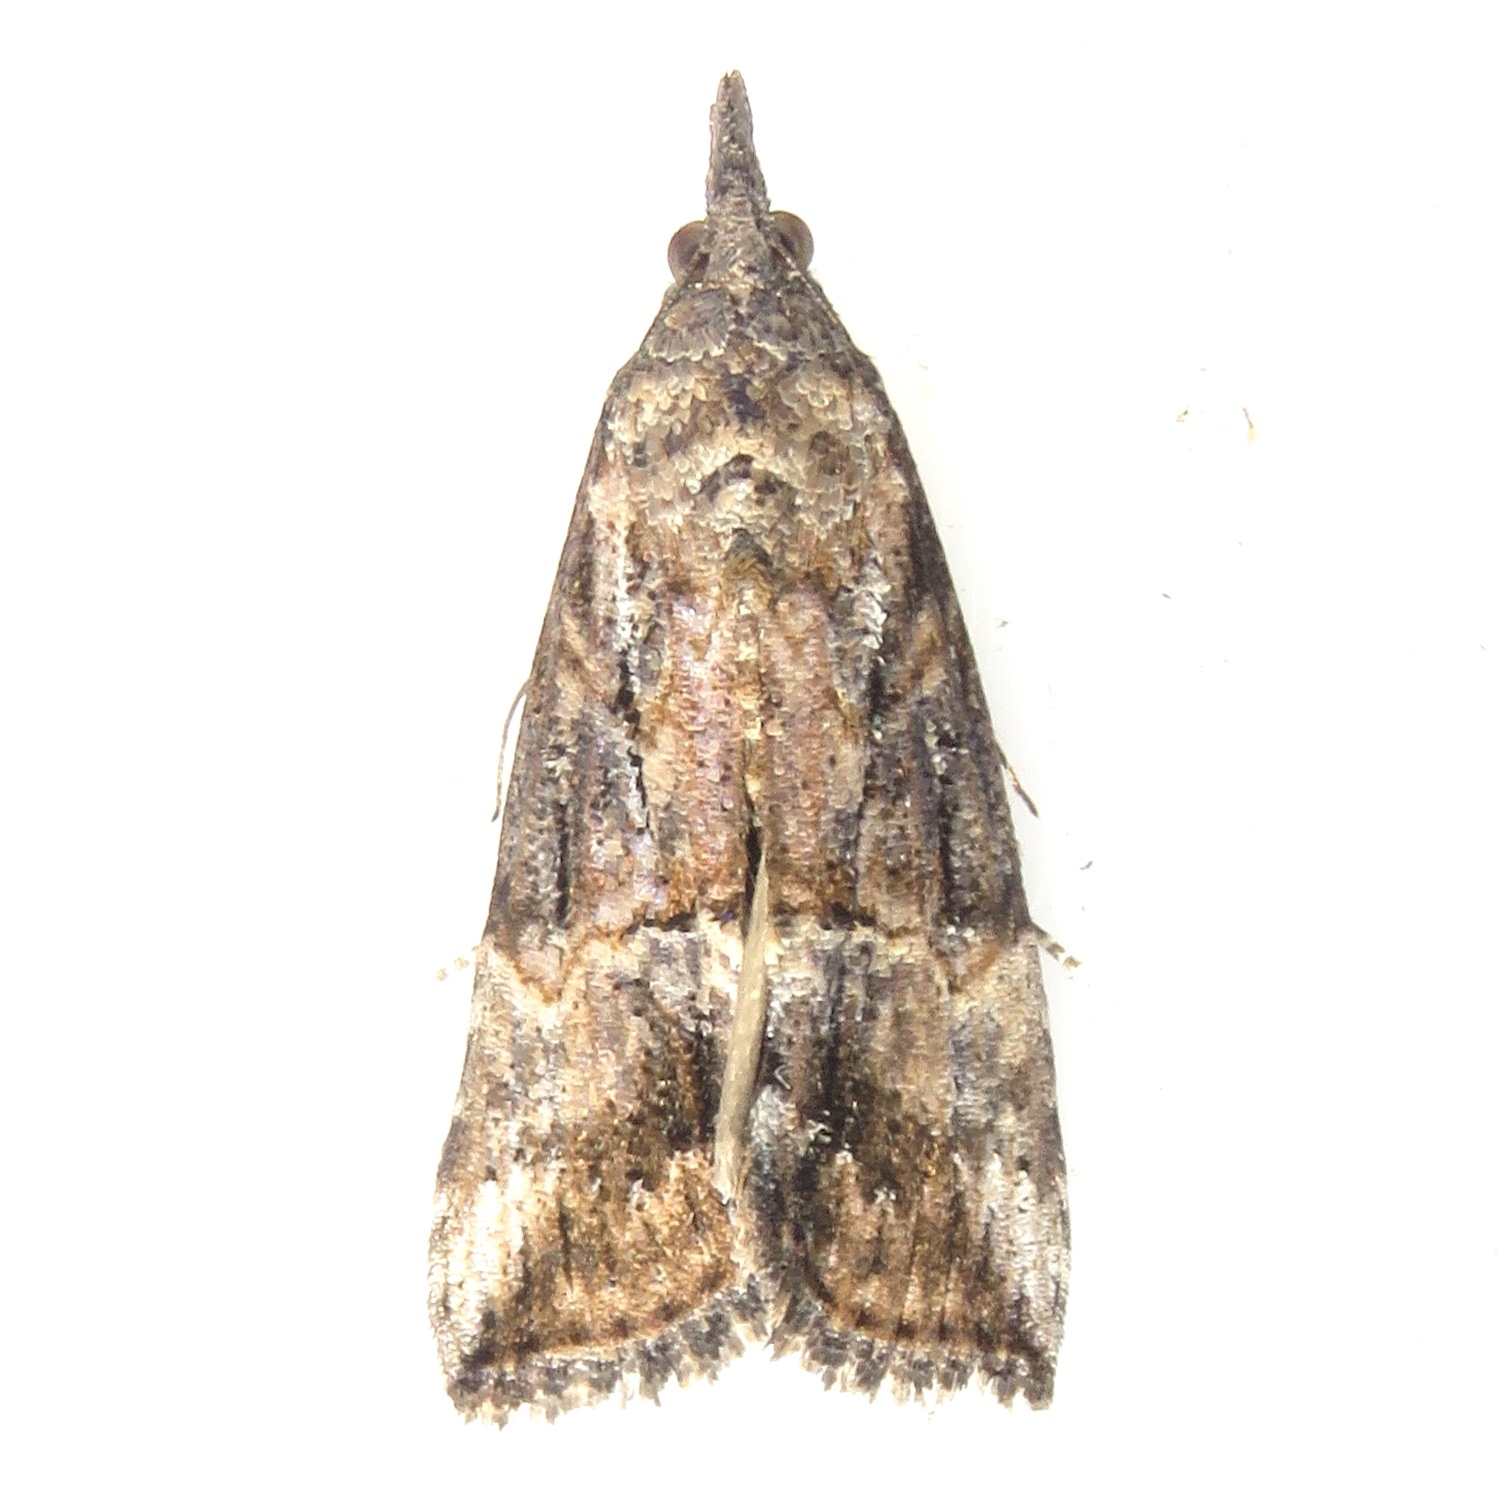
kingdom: Animalia
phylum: Arthropoda
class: Insecta
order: Lepidoptera
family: Erebidae
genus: Hypena
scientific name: Hypena scabra
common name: Green cloverworm
